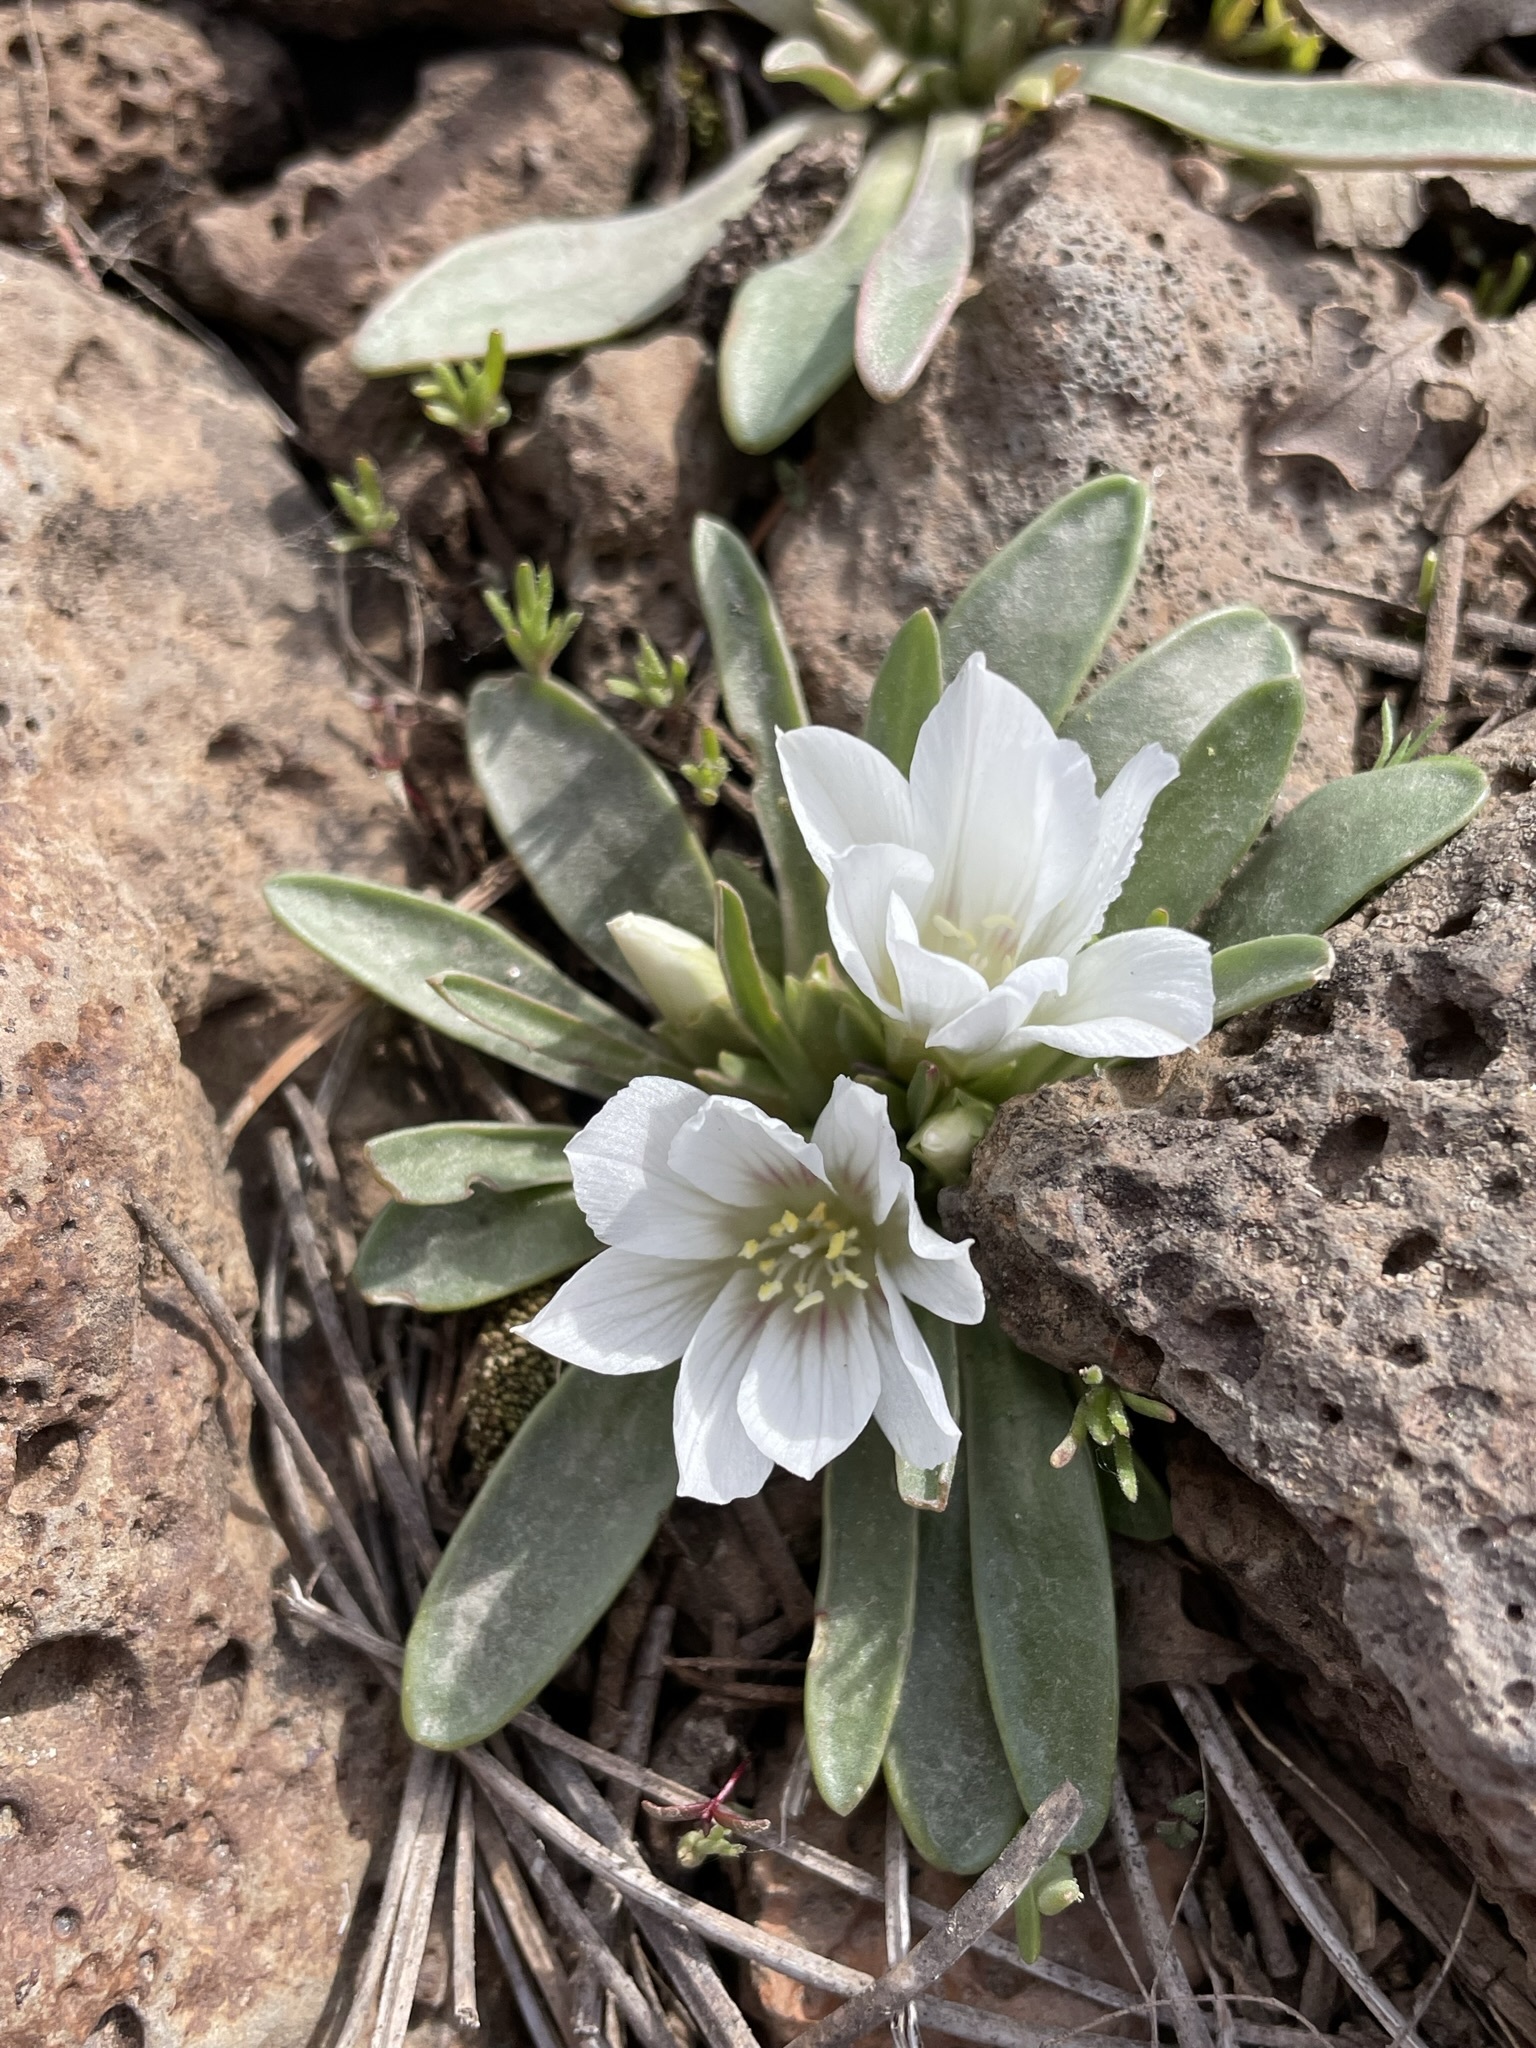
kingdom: Plantae
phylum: Tracheophyta
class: Magnoliopsida
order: Caryophyllales
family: Montiaceae
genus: Lewisia
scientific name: Lewisia brachycalyx
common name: Short-sepal lewisia
